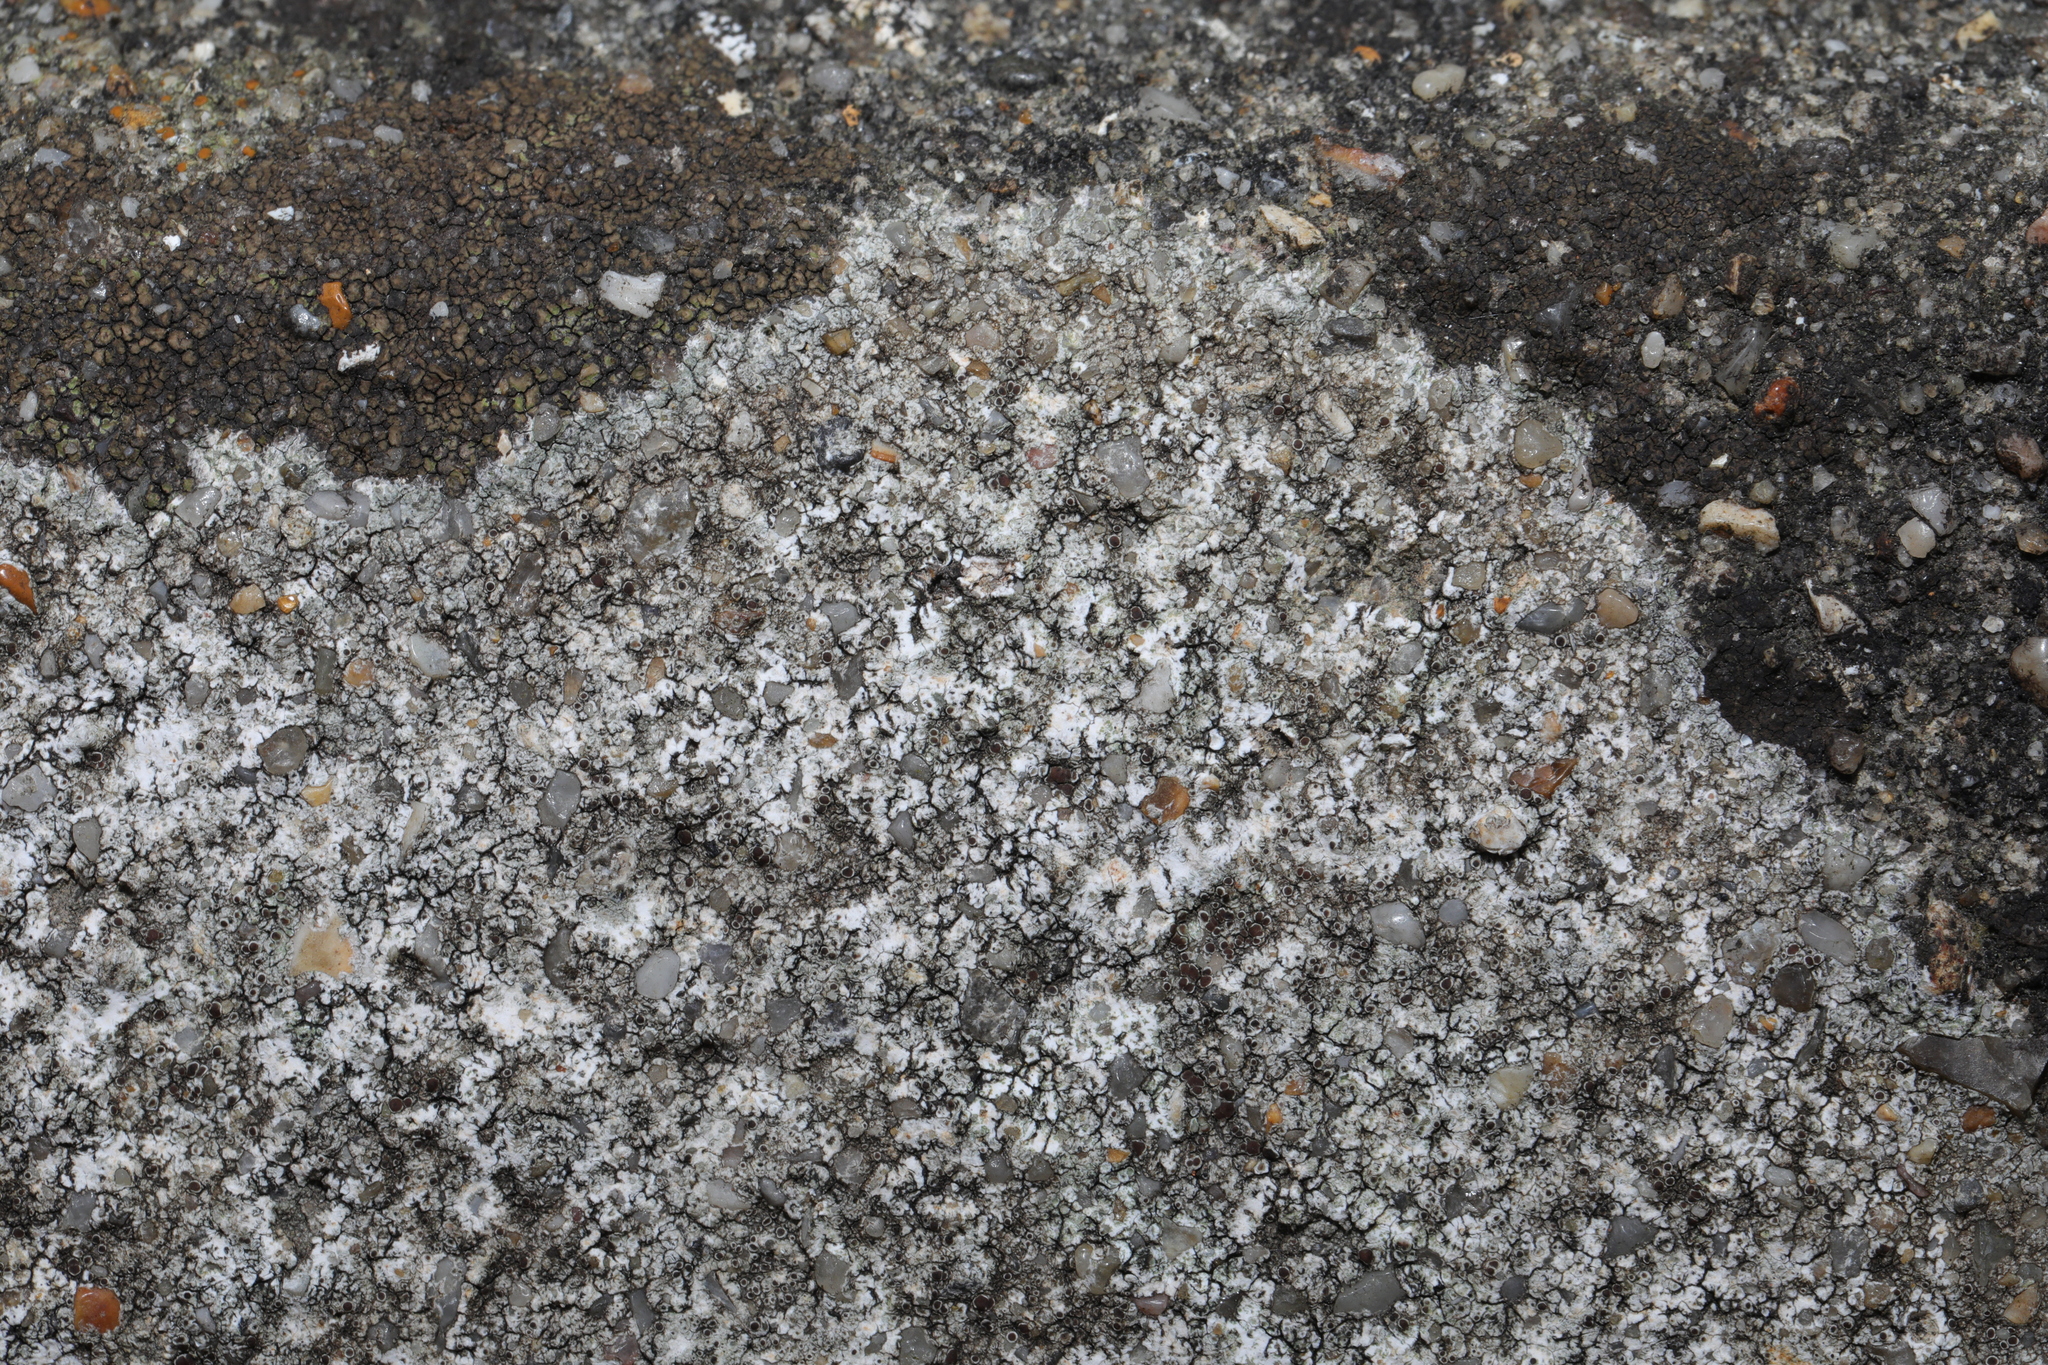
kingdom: Fungi
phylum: Ascomycota
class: Lecanoromycetes
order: Lecanorales
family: Lecanoraceae
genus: Lecanora
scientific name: Lecanora campestris
